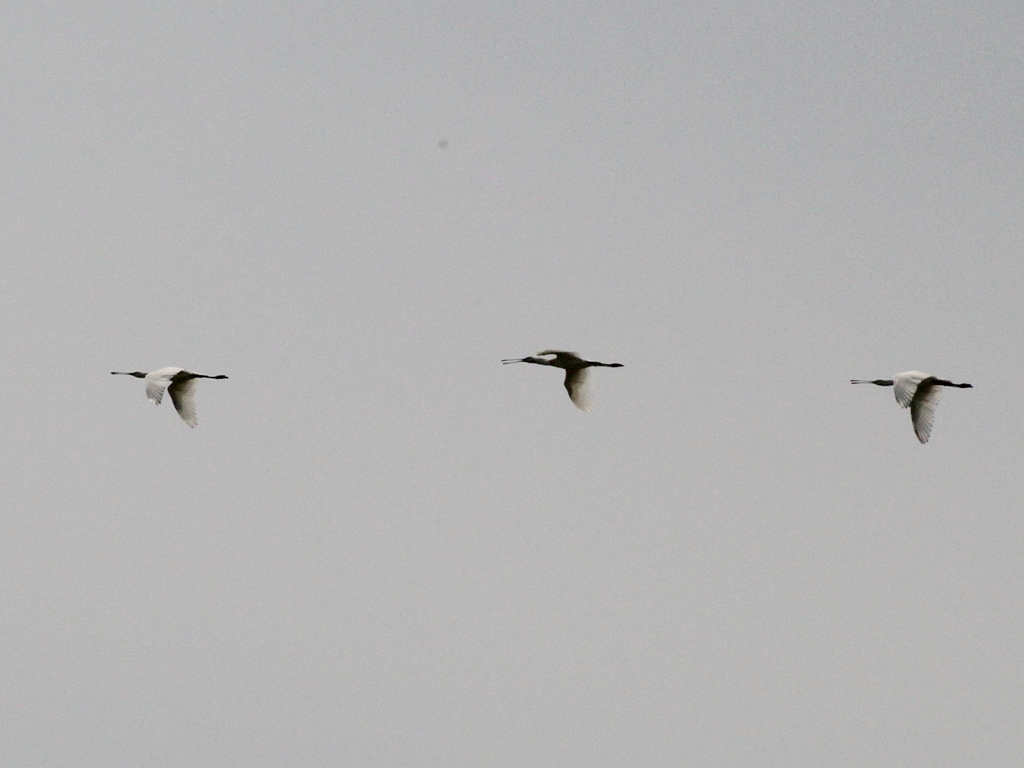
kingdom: Animalia
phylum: Chordata
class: Aves
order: Pelecaniformes
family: Threskiornithidae
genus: Platalea
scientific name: Platalea leucorodia
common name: Eurasian spoonbill
